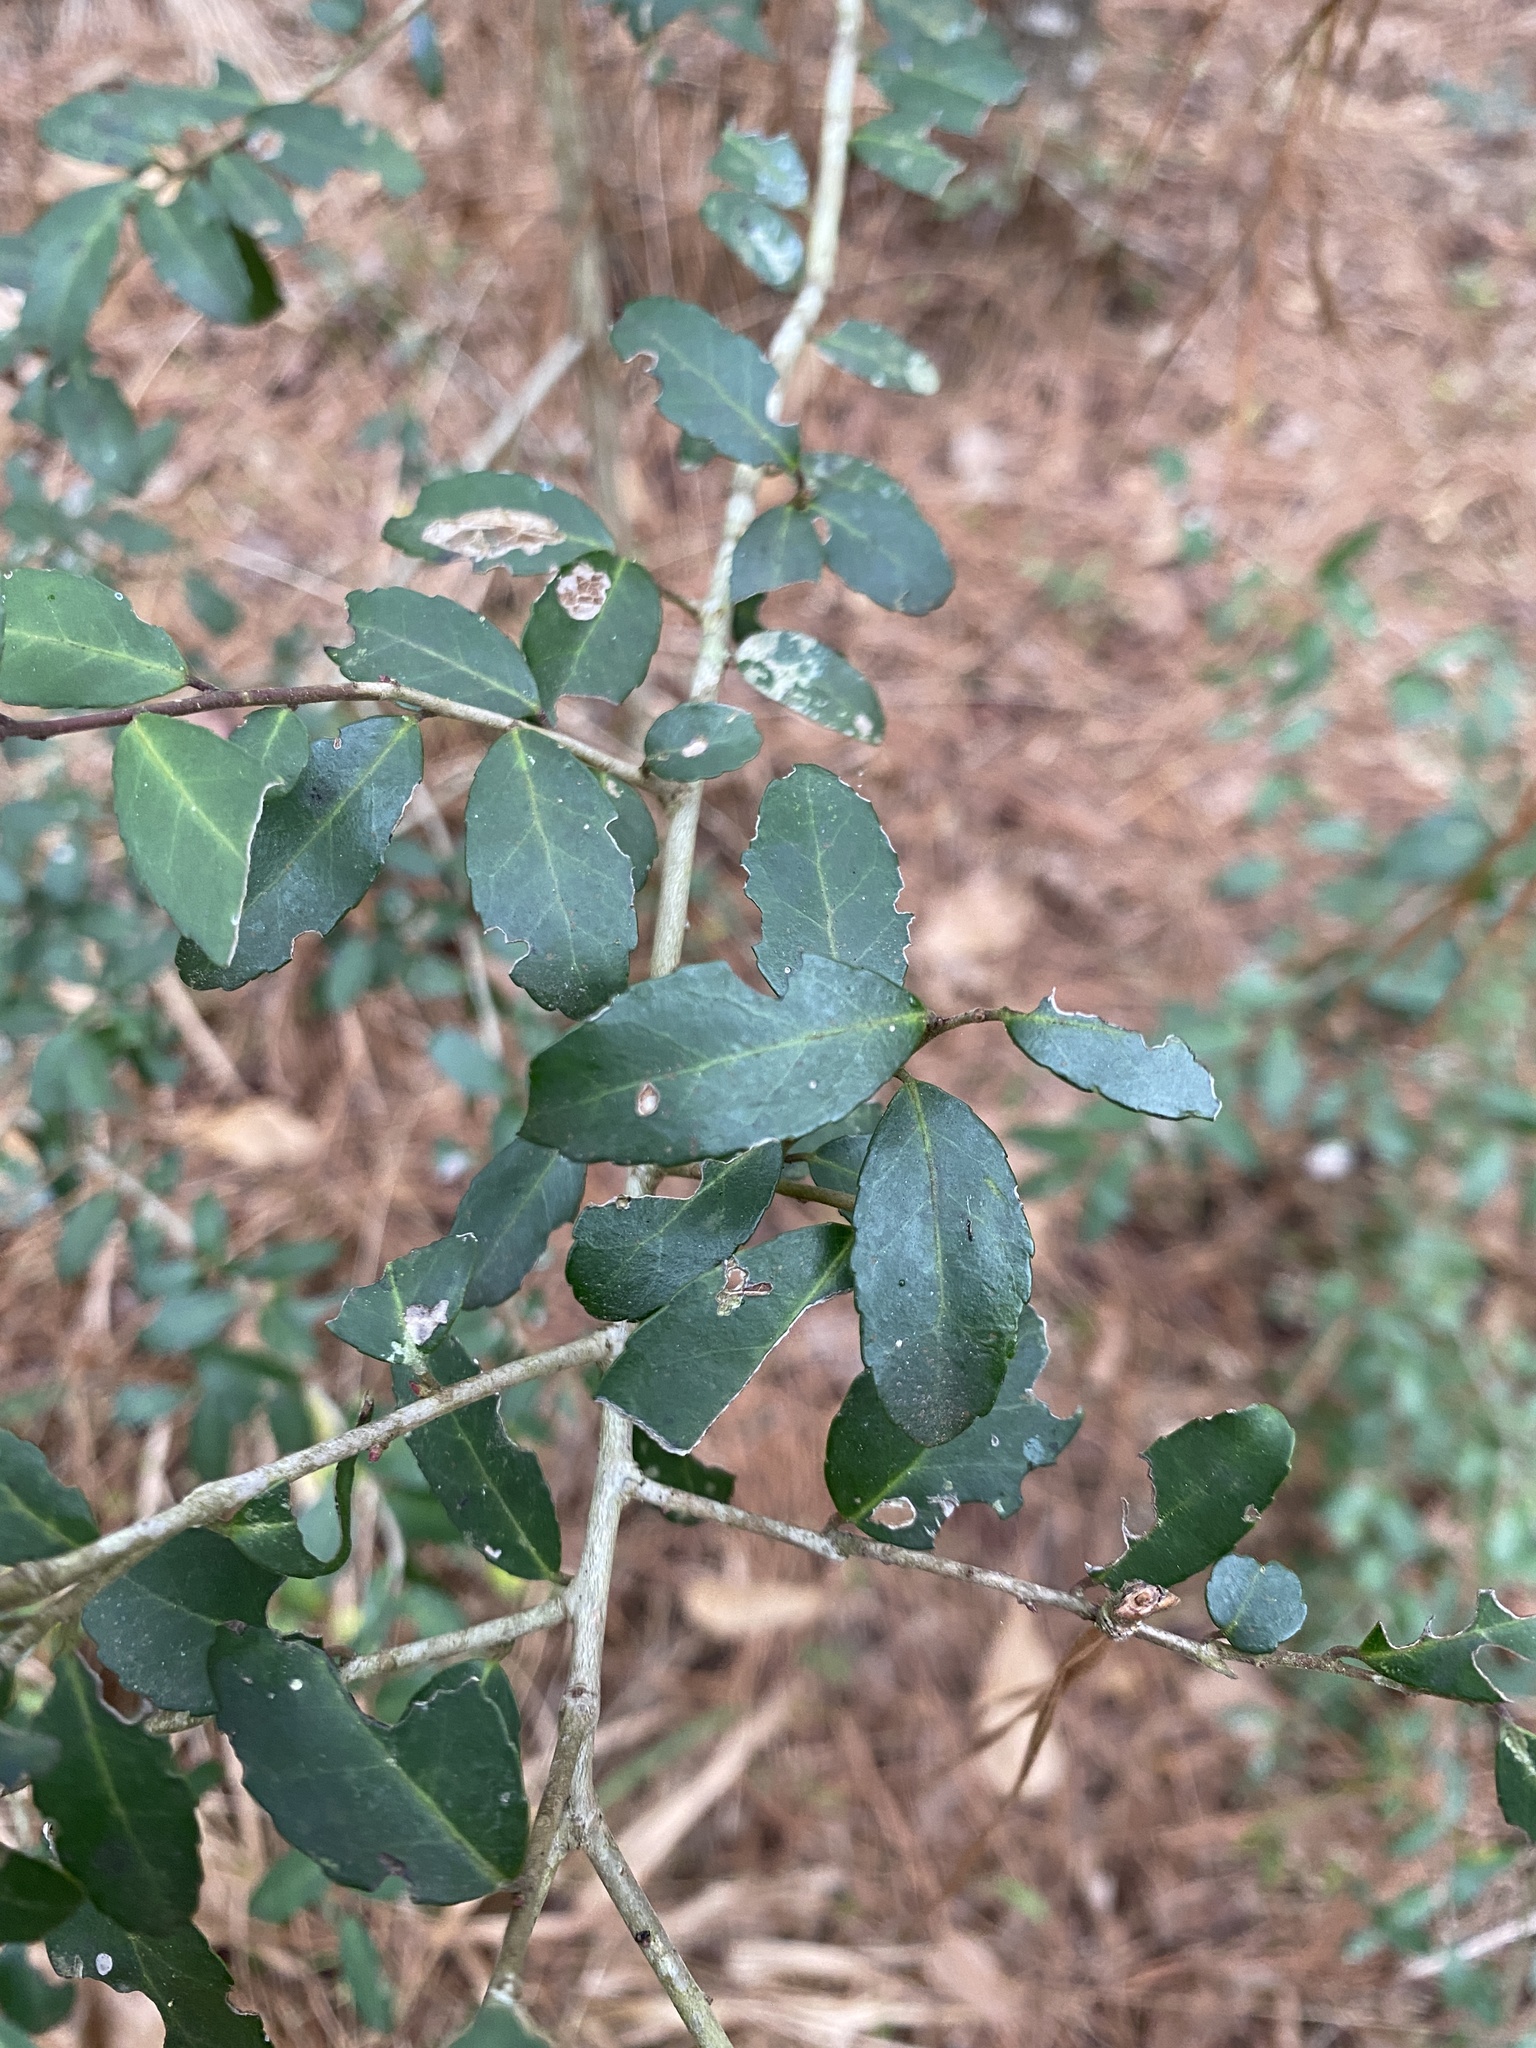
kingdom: Plantae
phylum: Tracheophyta
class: Magnoliopsida
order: Aquifoliales
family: Aquifoliaceae
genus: Ilex
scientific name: Ilex vomitoria
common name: Yaupon holly
